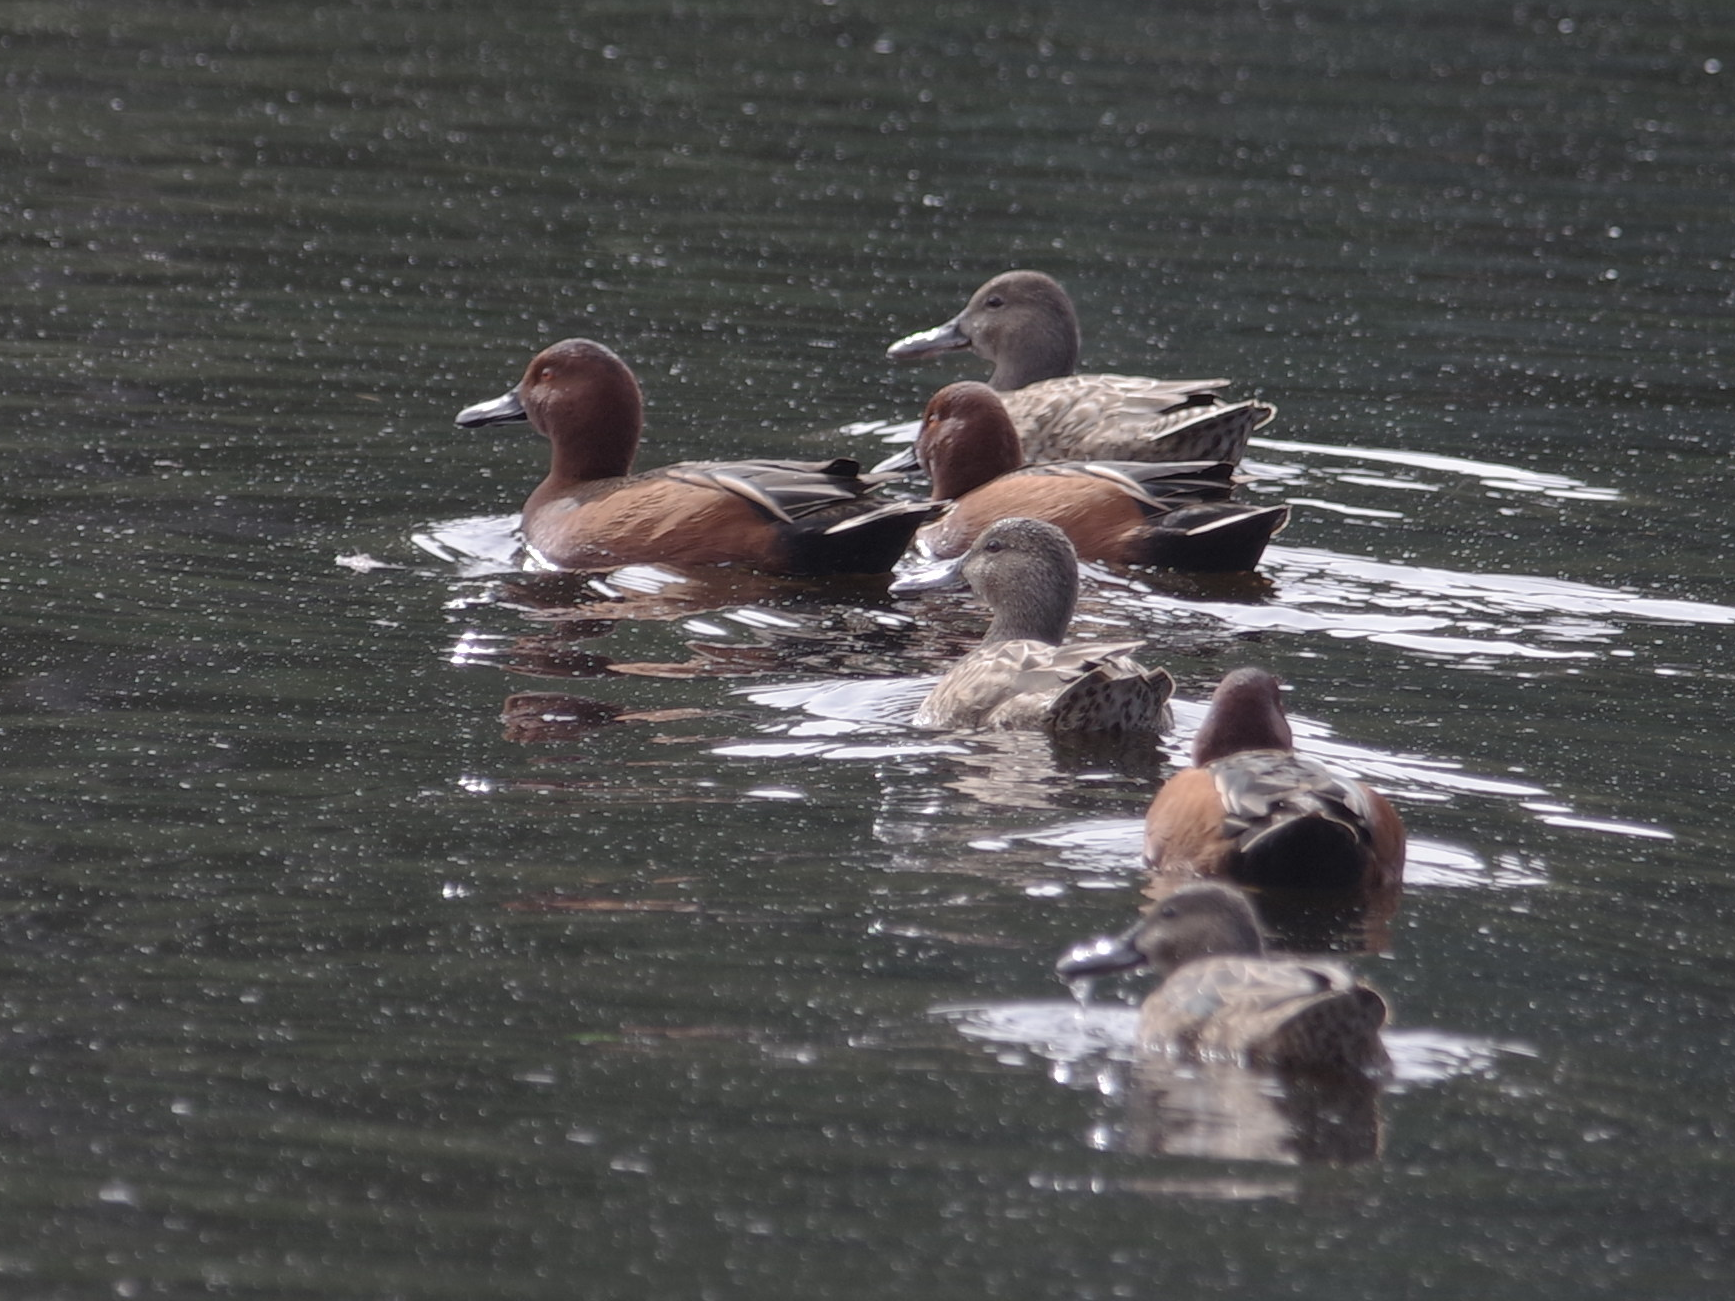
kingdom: Animalia
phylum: Chordata
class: Aves
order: Anseriformes
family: Anatidae
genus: Spatula
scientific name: Spatula cyanoptera
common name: Cinnamon teal
